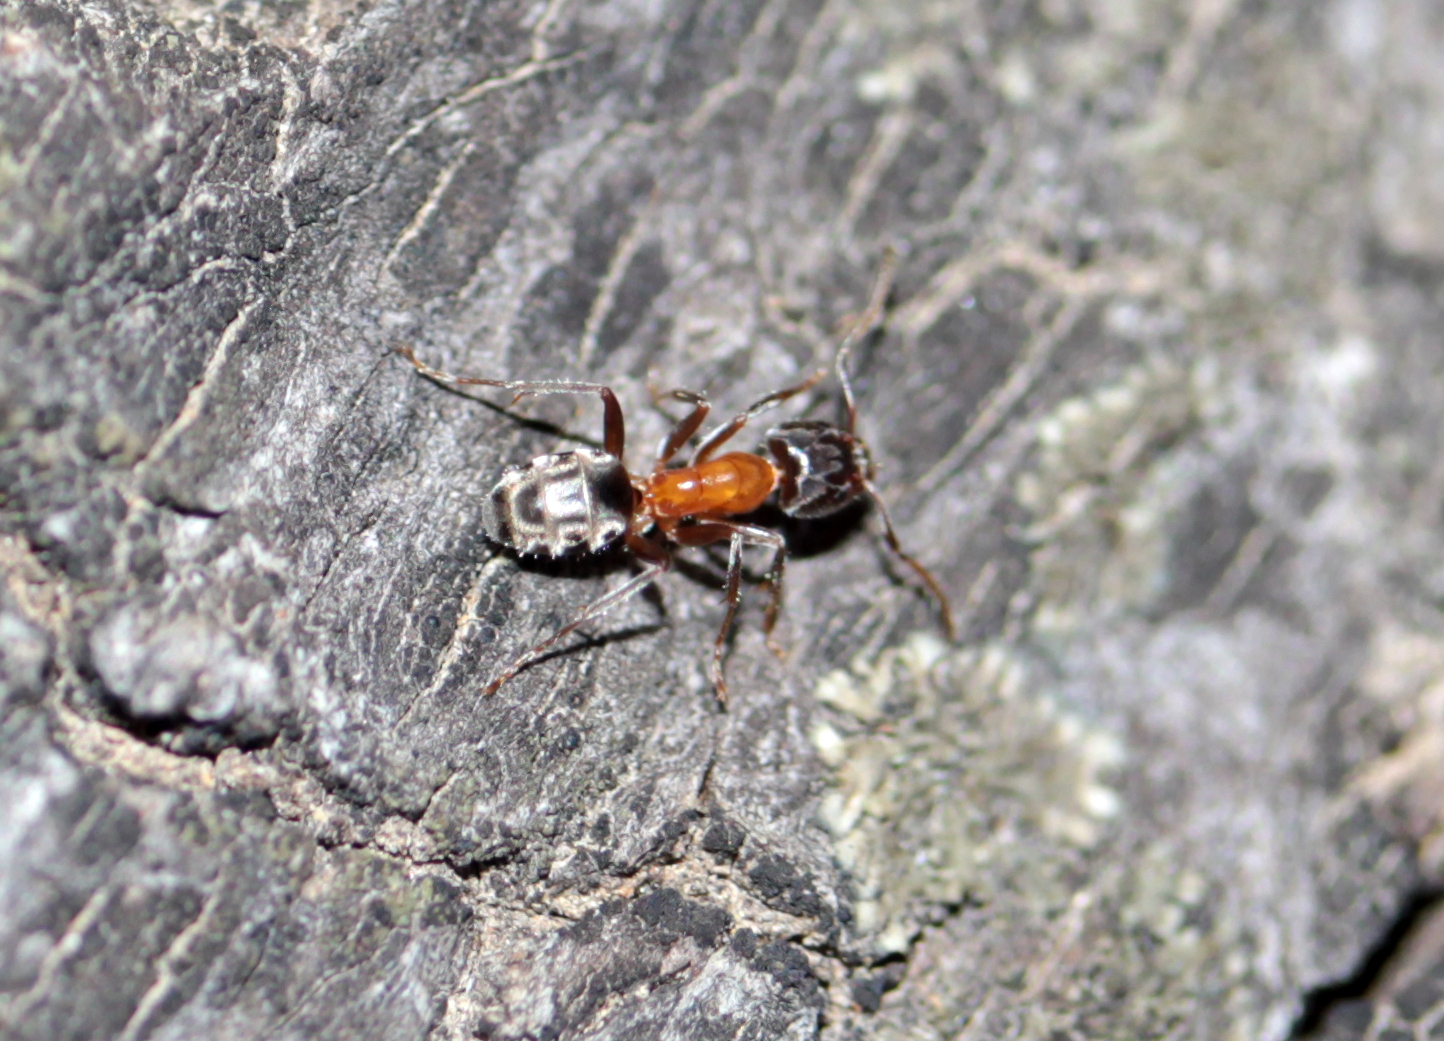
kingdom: Animalia
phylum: Arthropoda
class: Insecta
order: Hymenoptera
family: Formicidae
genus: Liometopum
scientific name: Liometopum occidentale
